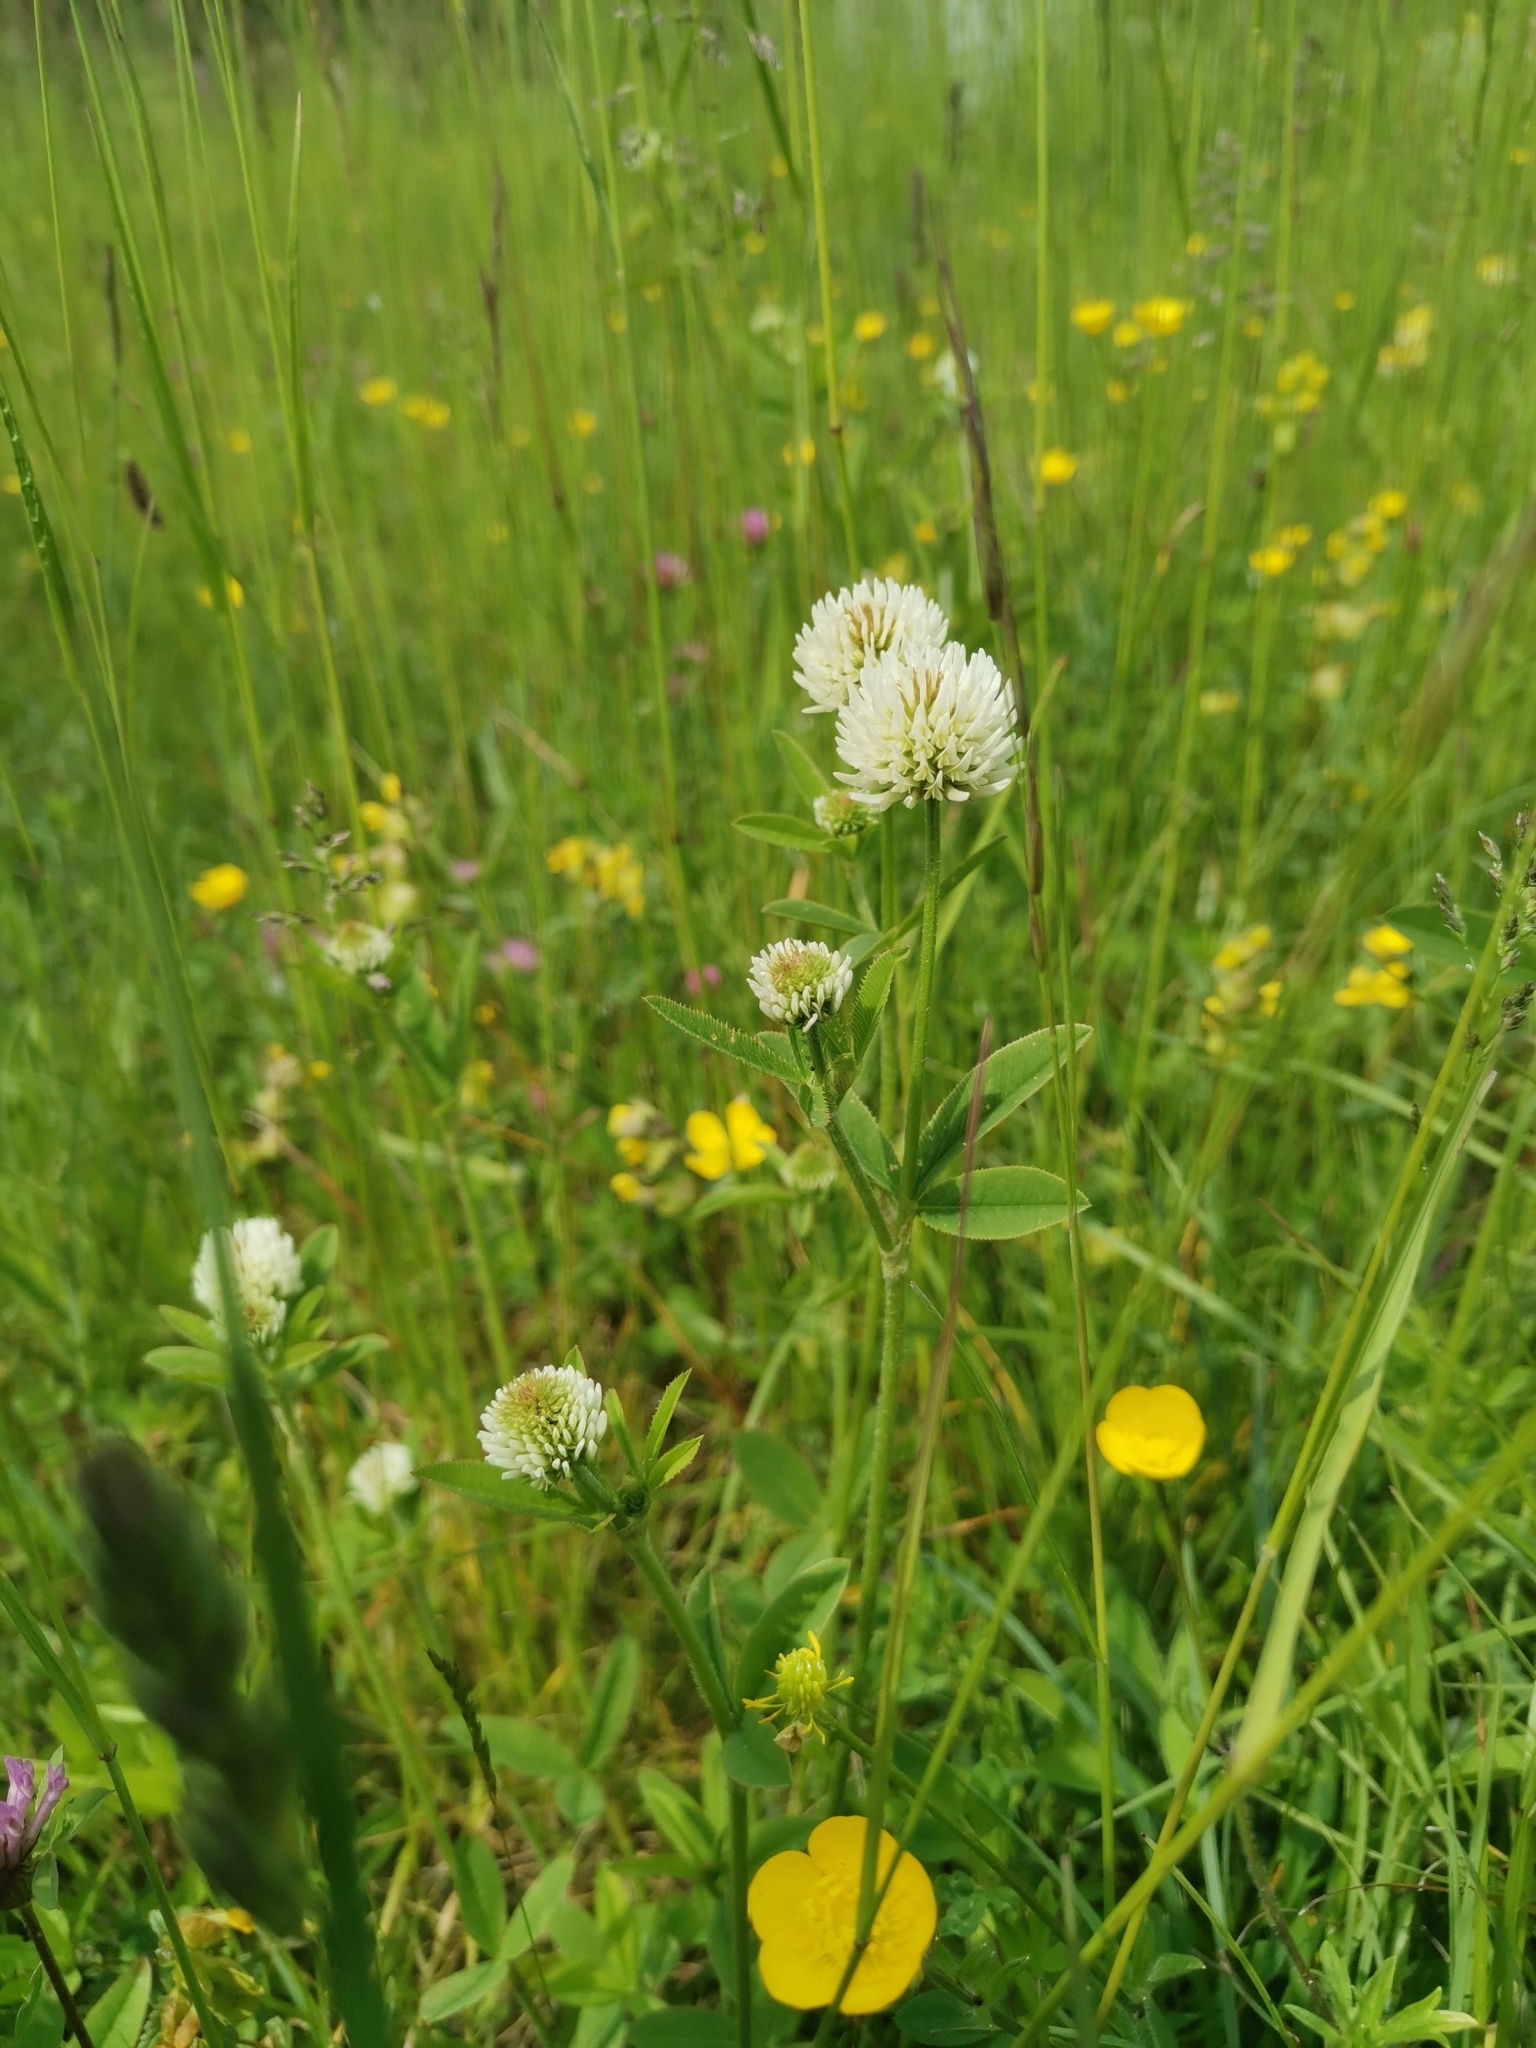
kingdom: Plantae
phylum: Tracheophyta
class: Magnoliopsida
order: Fabales
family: Fabaceae
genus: Trifolium
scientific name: Trifolium montanum
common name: Mountain clover
